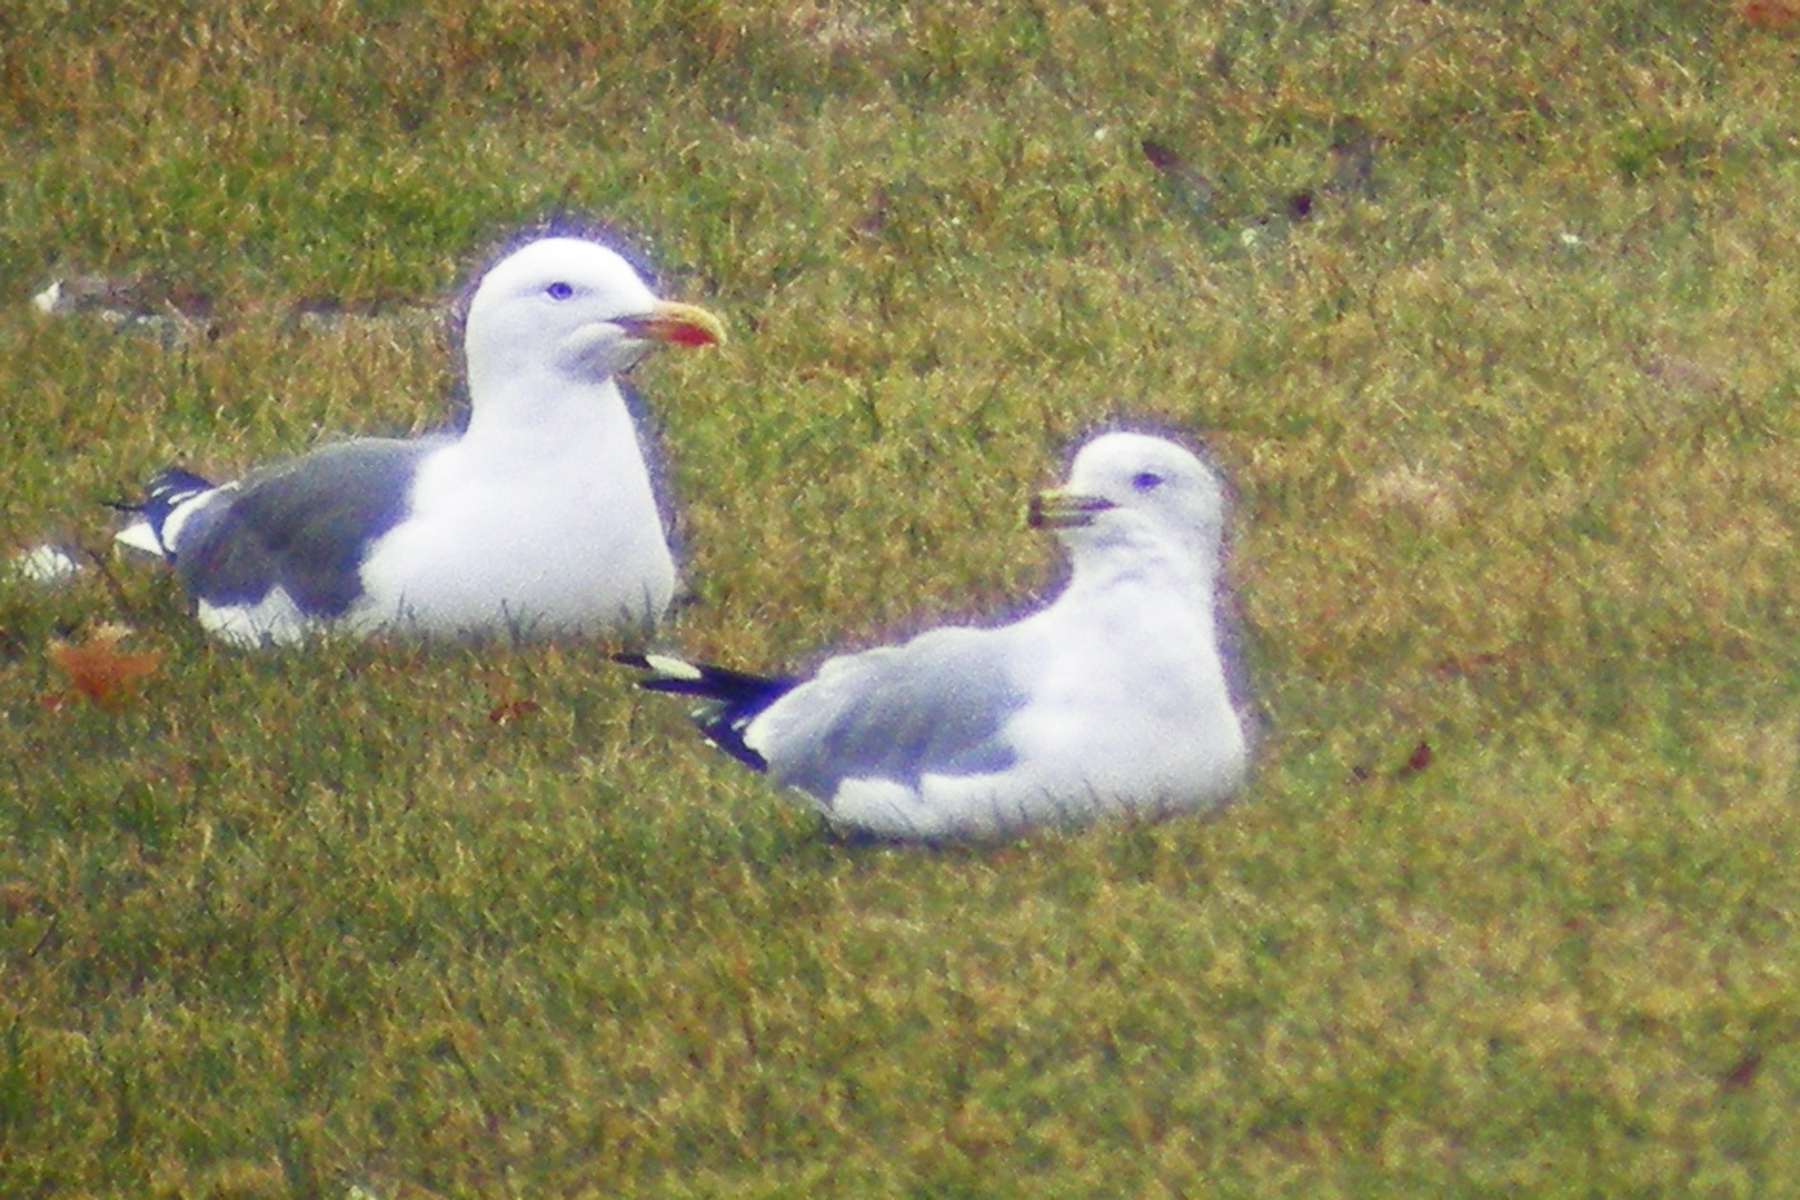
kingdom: Animalia
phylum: Chordata
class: Aves
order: Charadriiformes
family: Laridae
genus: Larus
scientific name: Larus delawarensis
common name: Ring-billed gull
